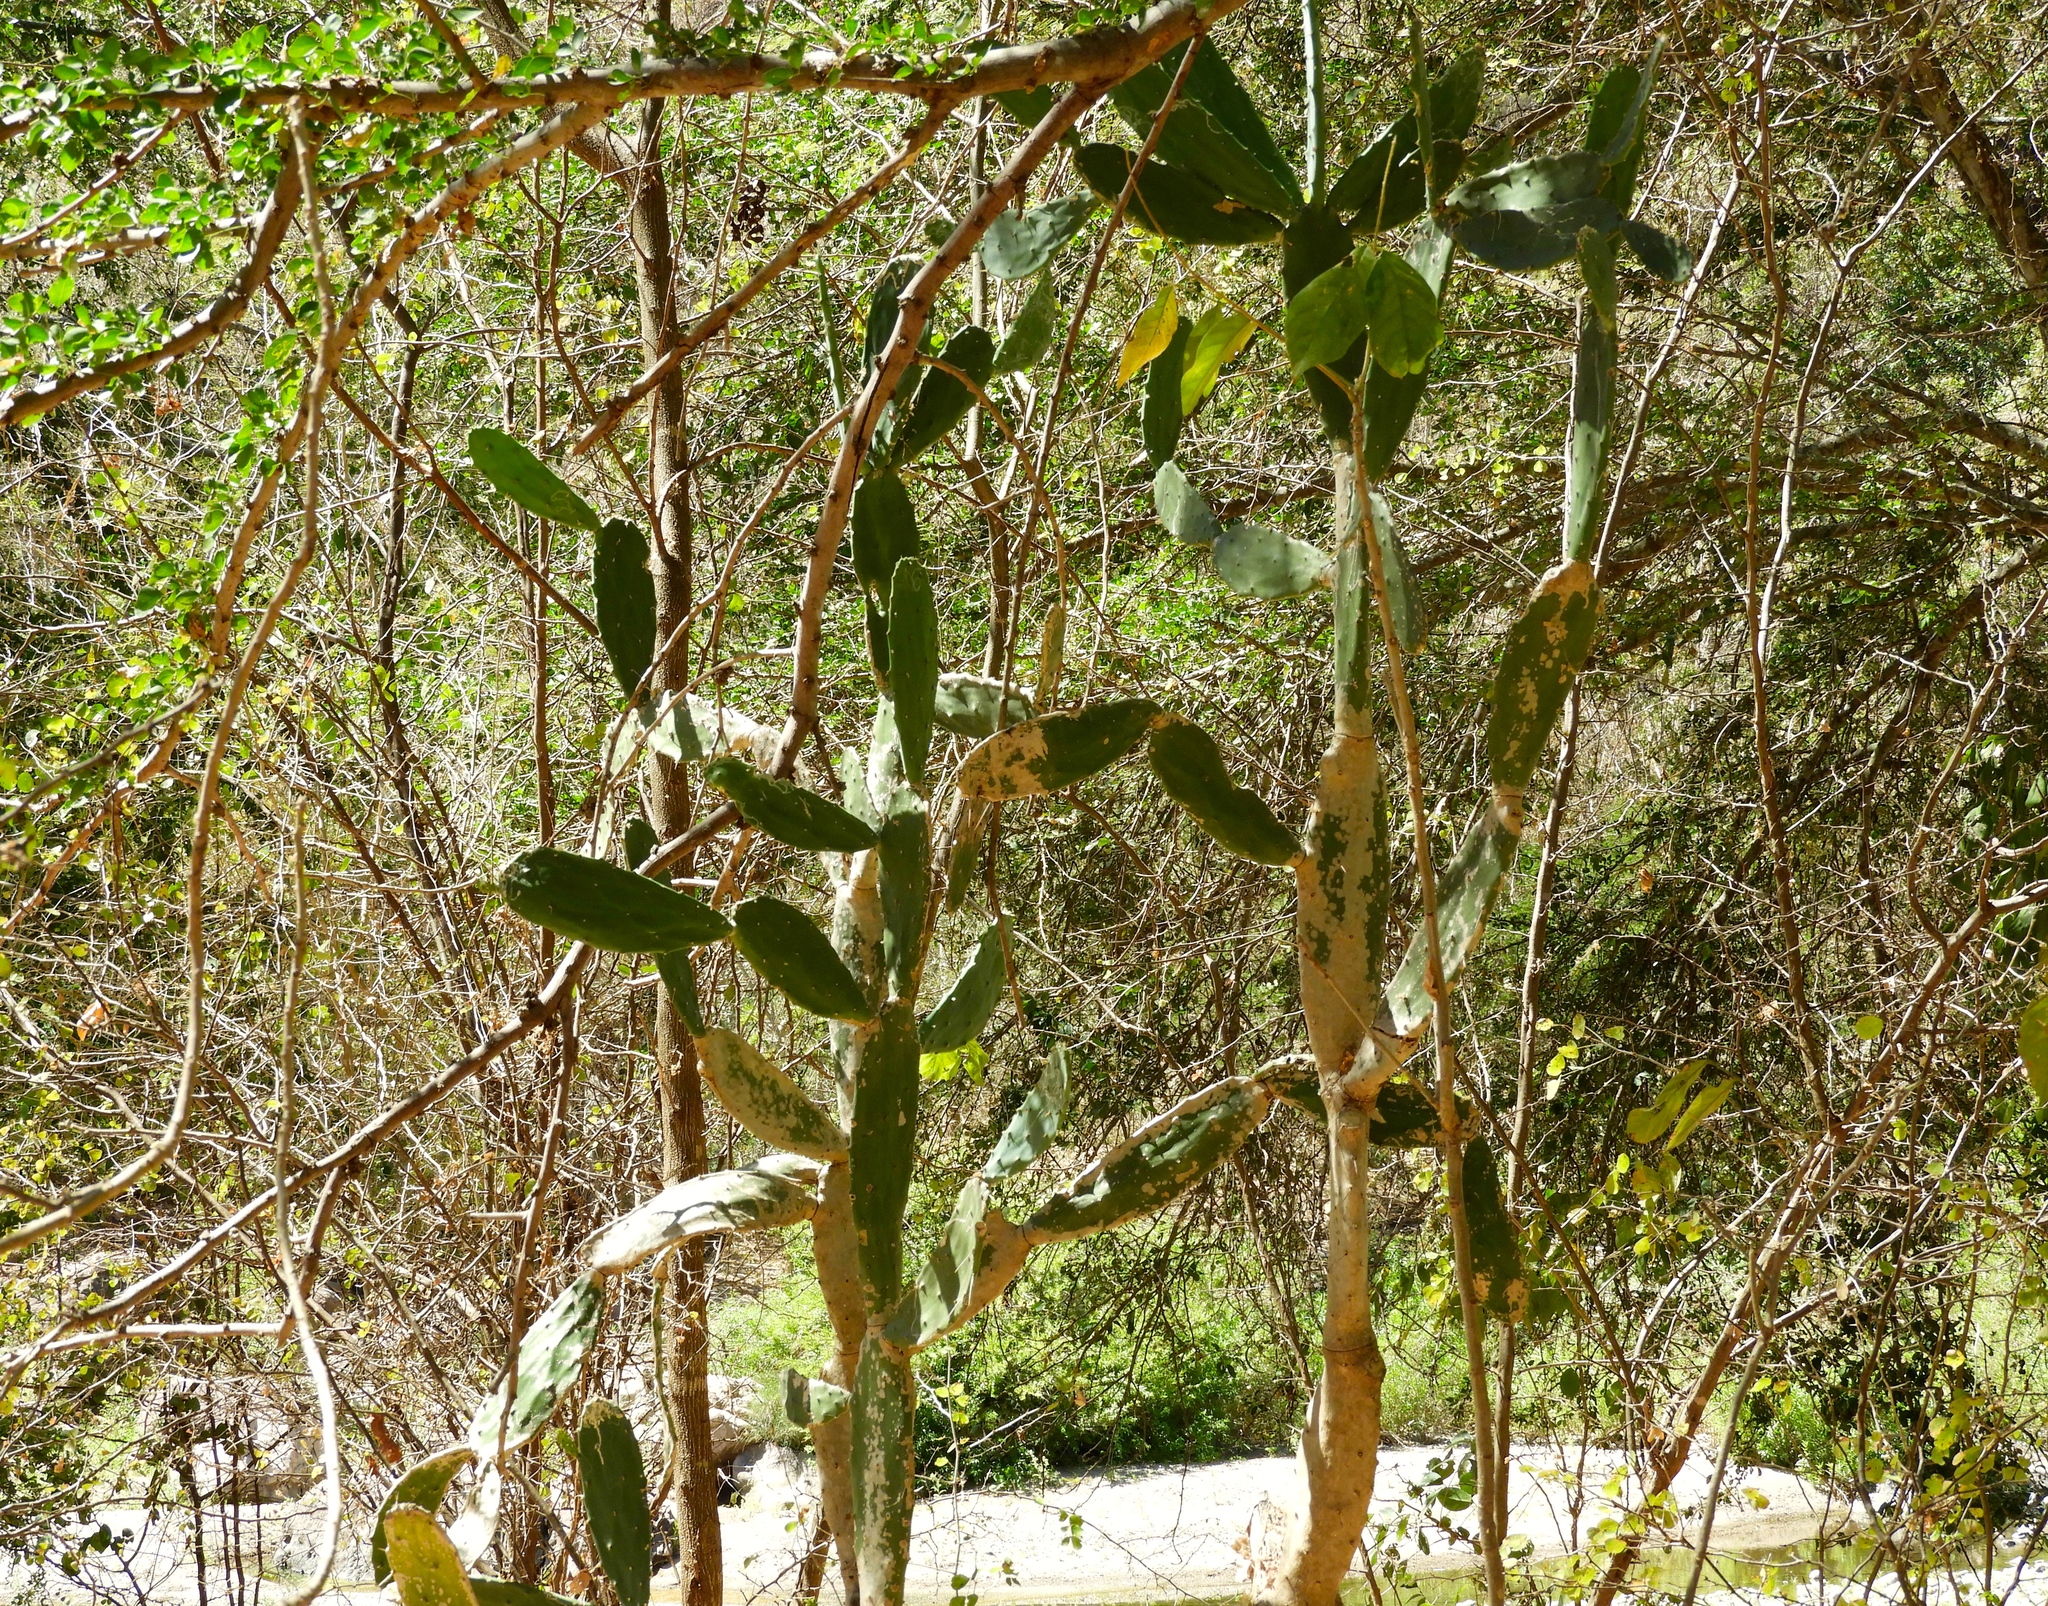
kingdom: Plantae
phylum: Tracheophyta
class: Magnoliopsida
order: Caryophyllales
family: Cactaceae
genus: Opuntia
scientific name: Opuntia hyptiacantha
